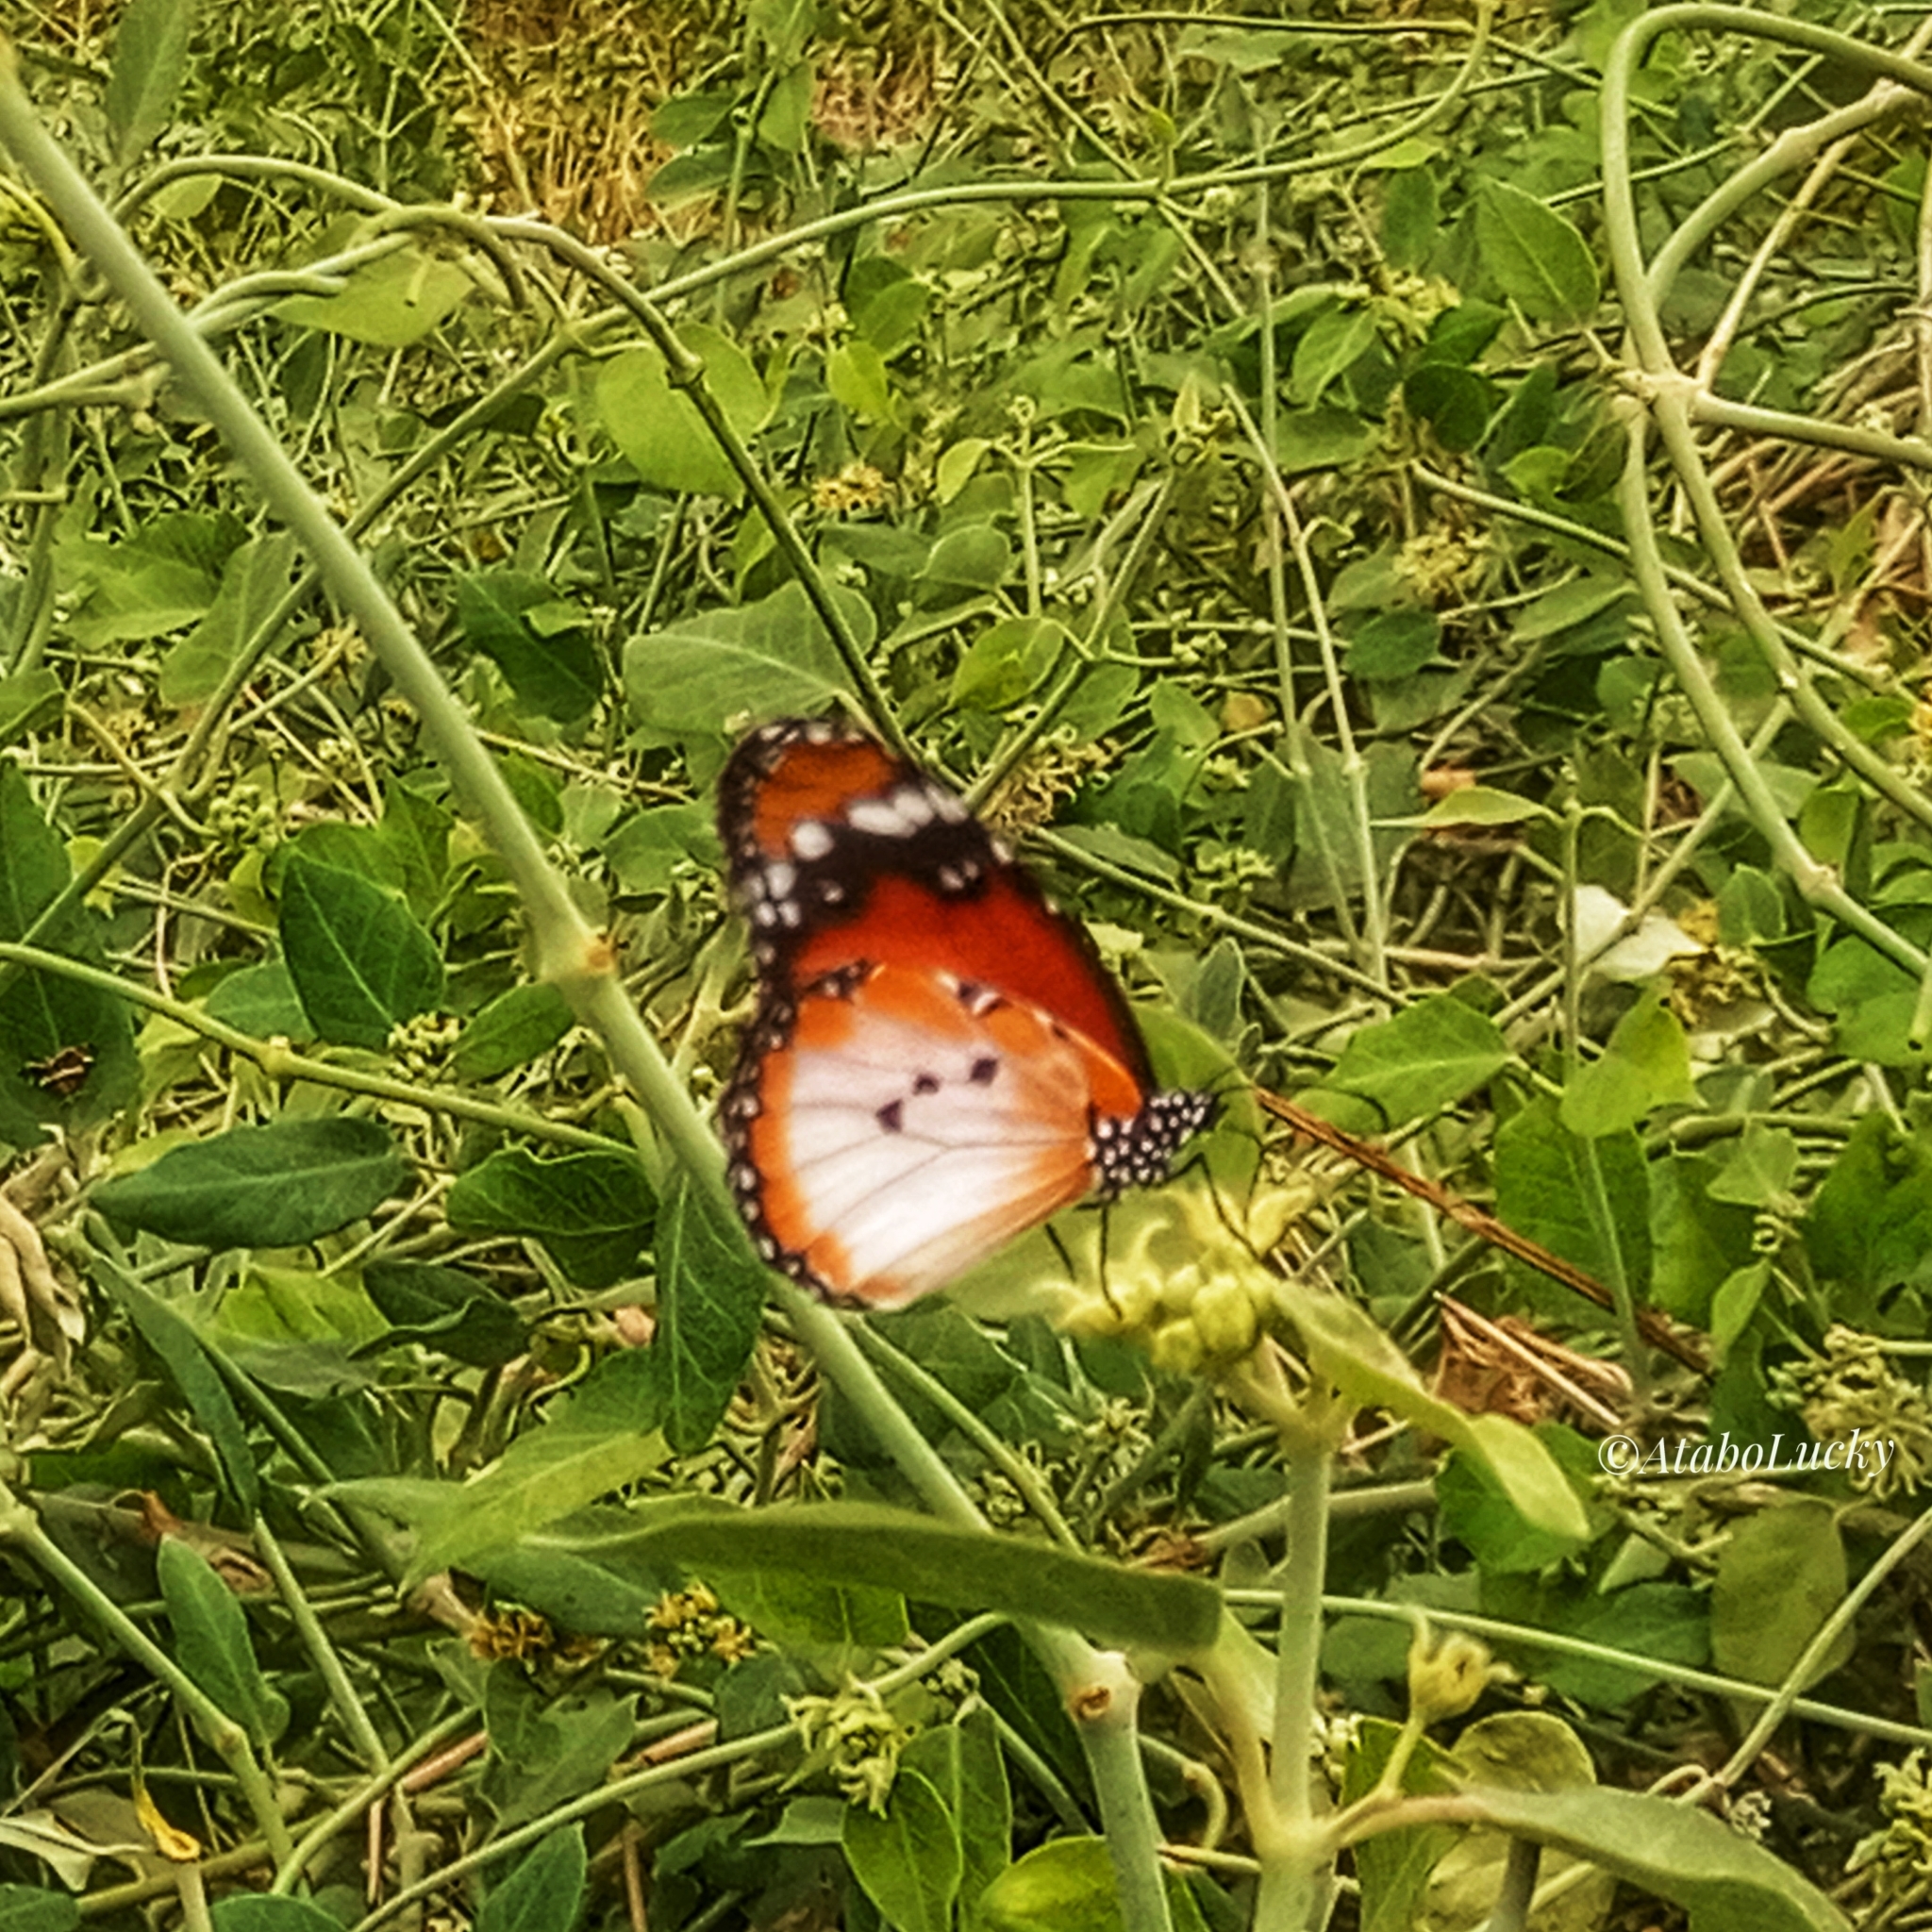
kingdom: Animalia
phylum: Arthropoda
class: Insecta
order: Lepidoptera
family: Nymphalidae
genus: Danaus
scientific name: Danaus chrysippus
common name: Plain tiger
